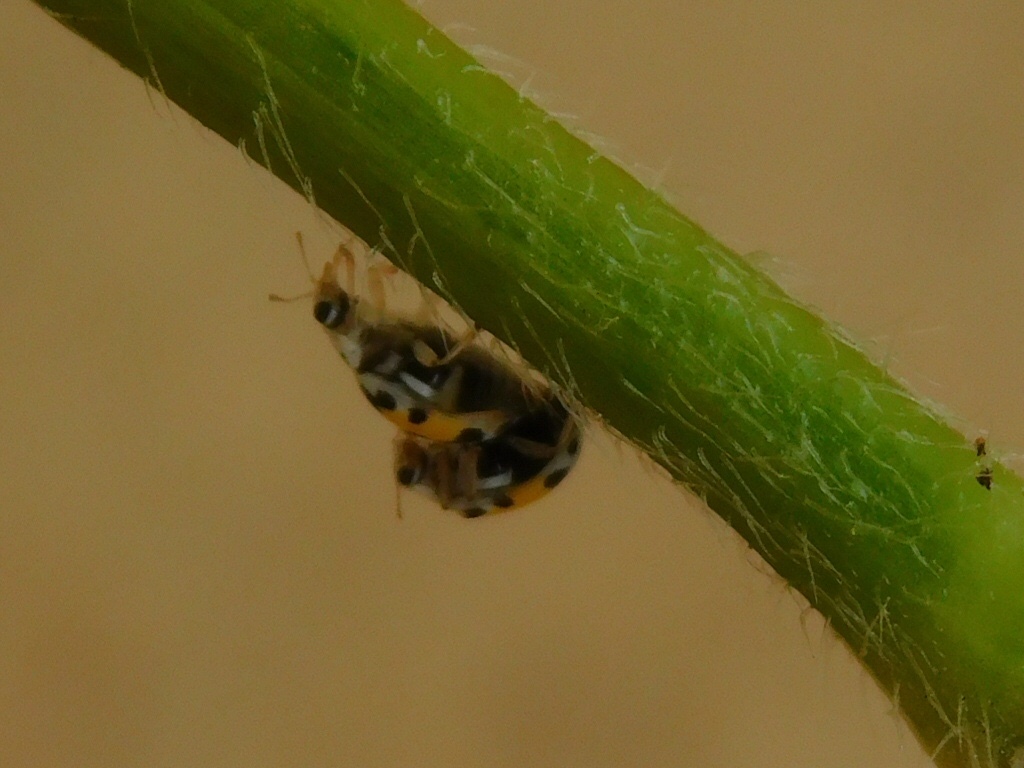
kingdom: Animalia
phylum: Arthropoda
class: Insecta
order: Coleoptera
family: Coccinellidae
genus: Psyllobora
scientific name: Psyllobora nana
